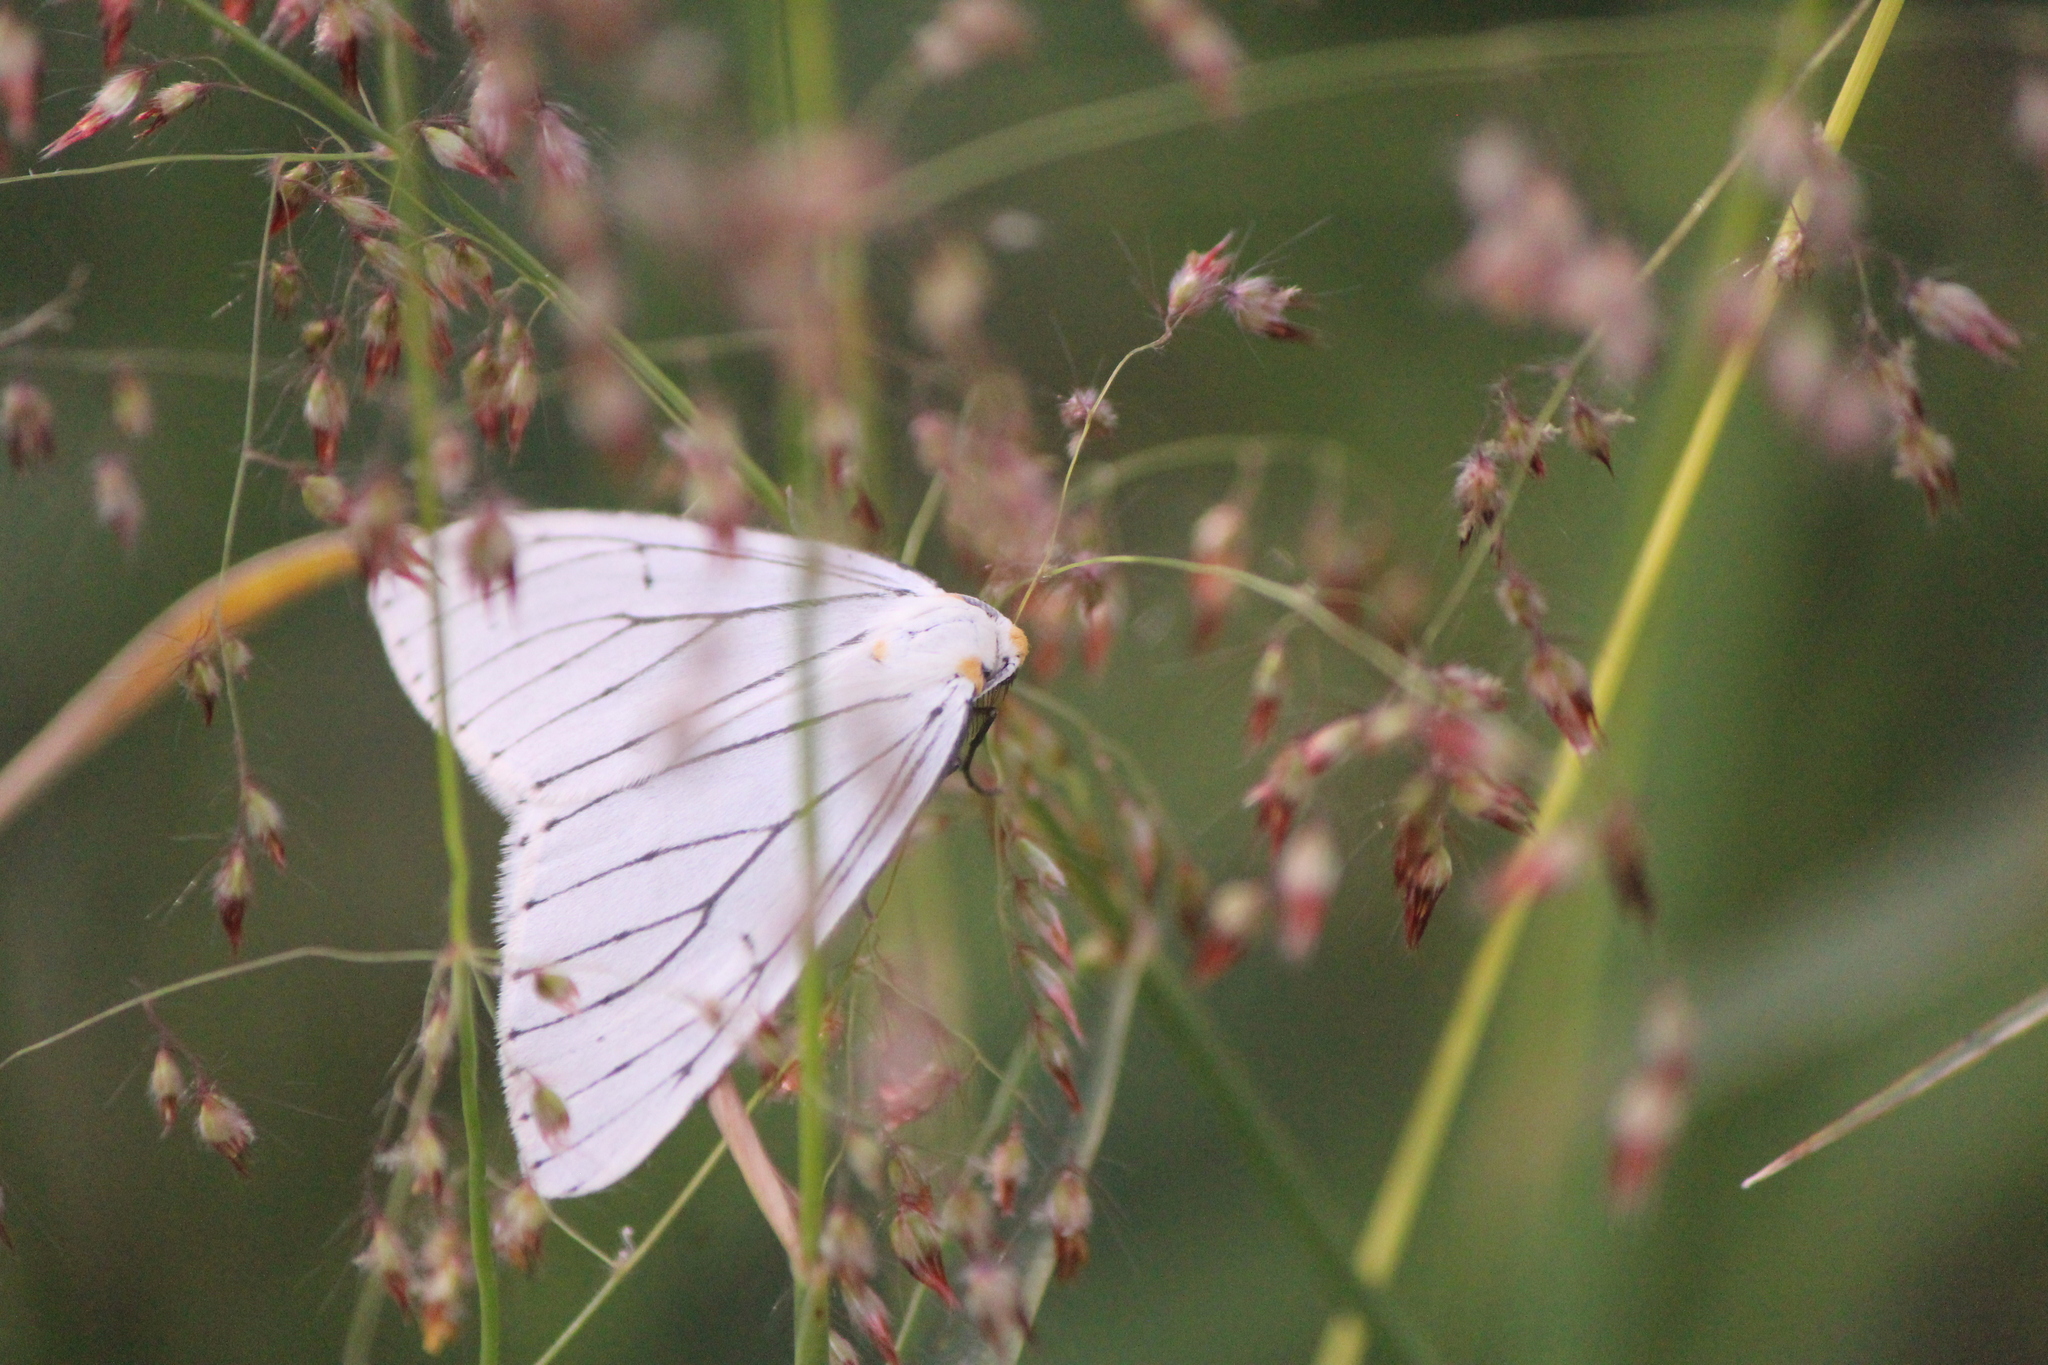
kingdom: Animalia
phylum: Arthropoda
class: Insecta
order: Lepidoptera
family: Geometridae
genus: Neuromelia
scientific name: Neuromelia selectata
